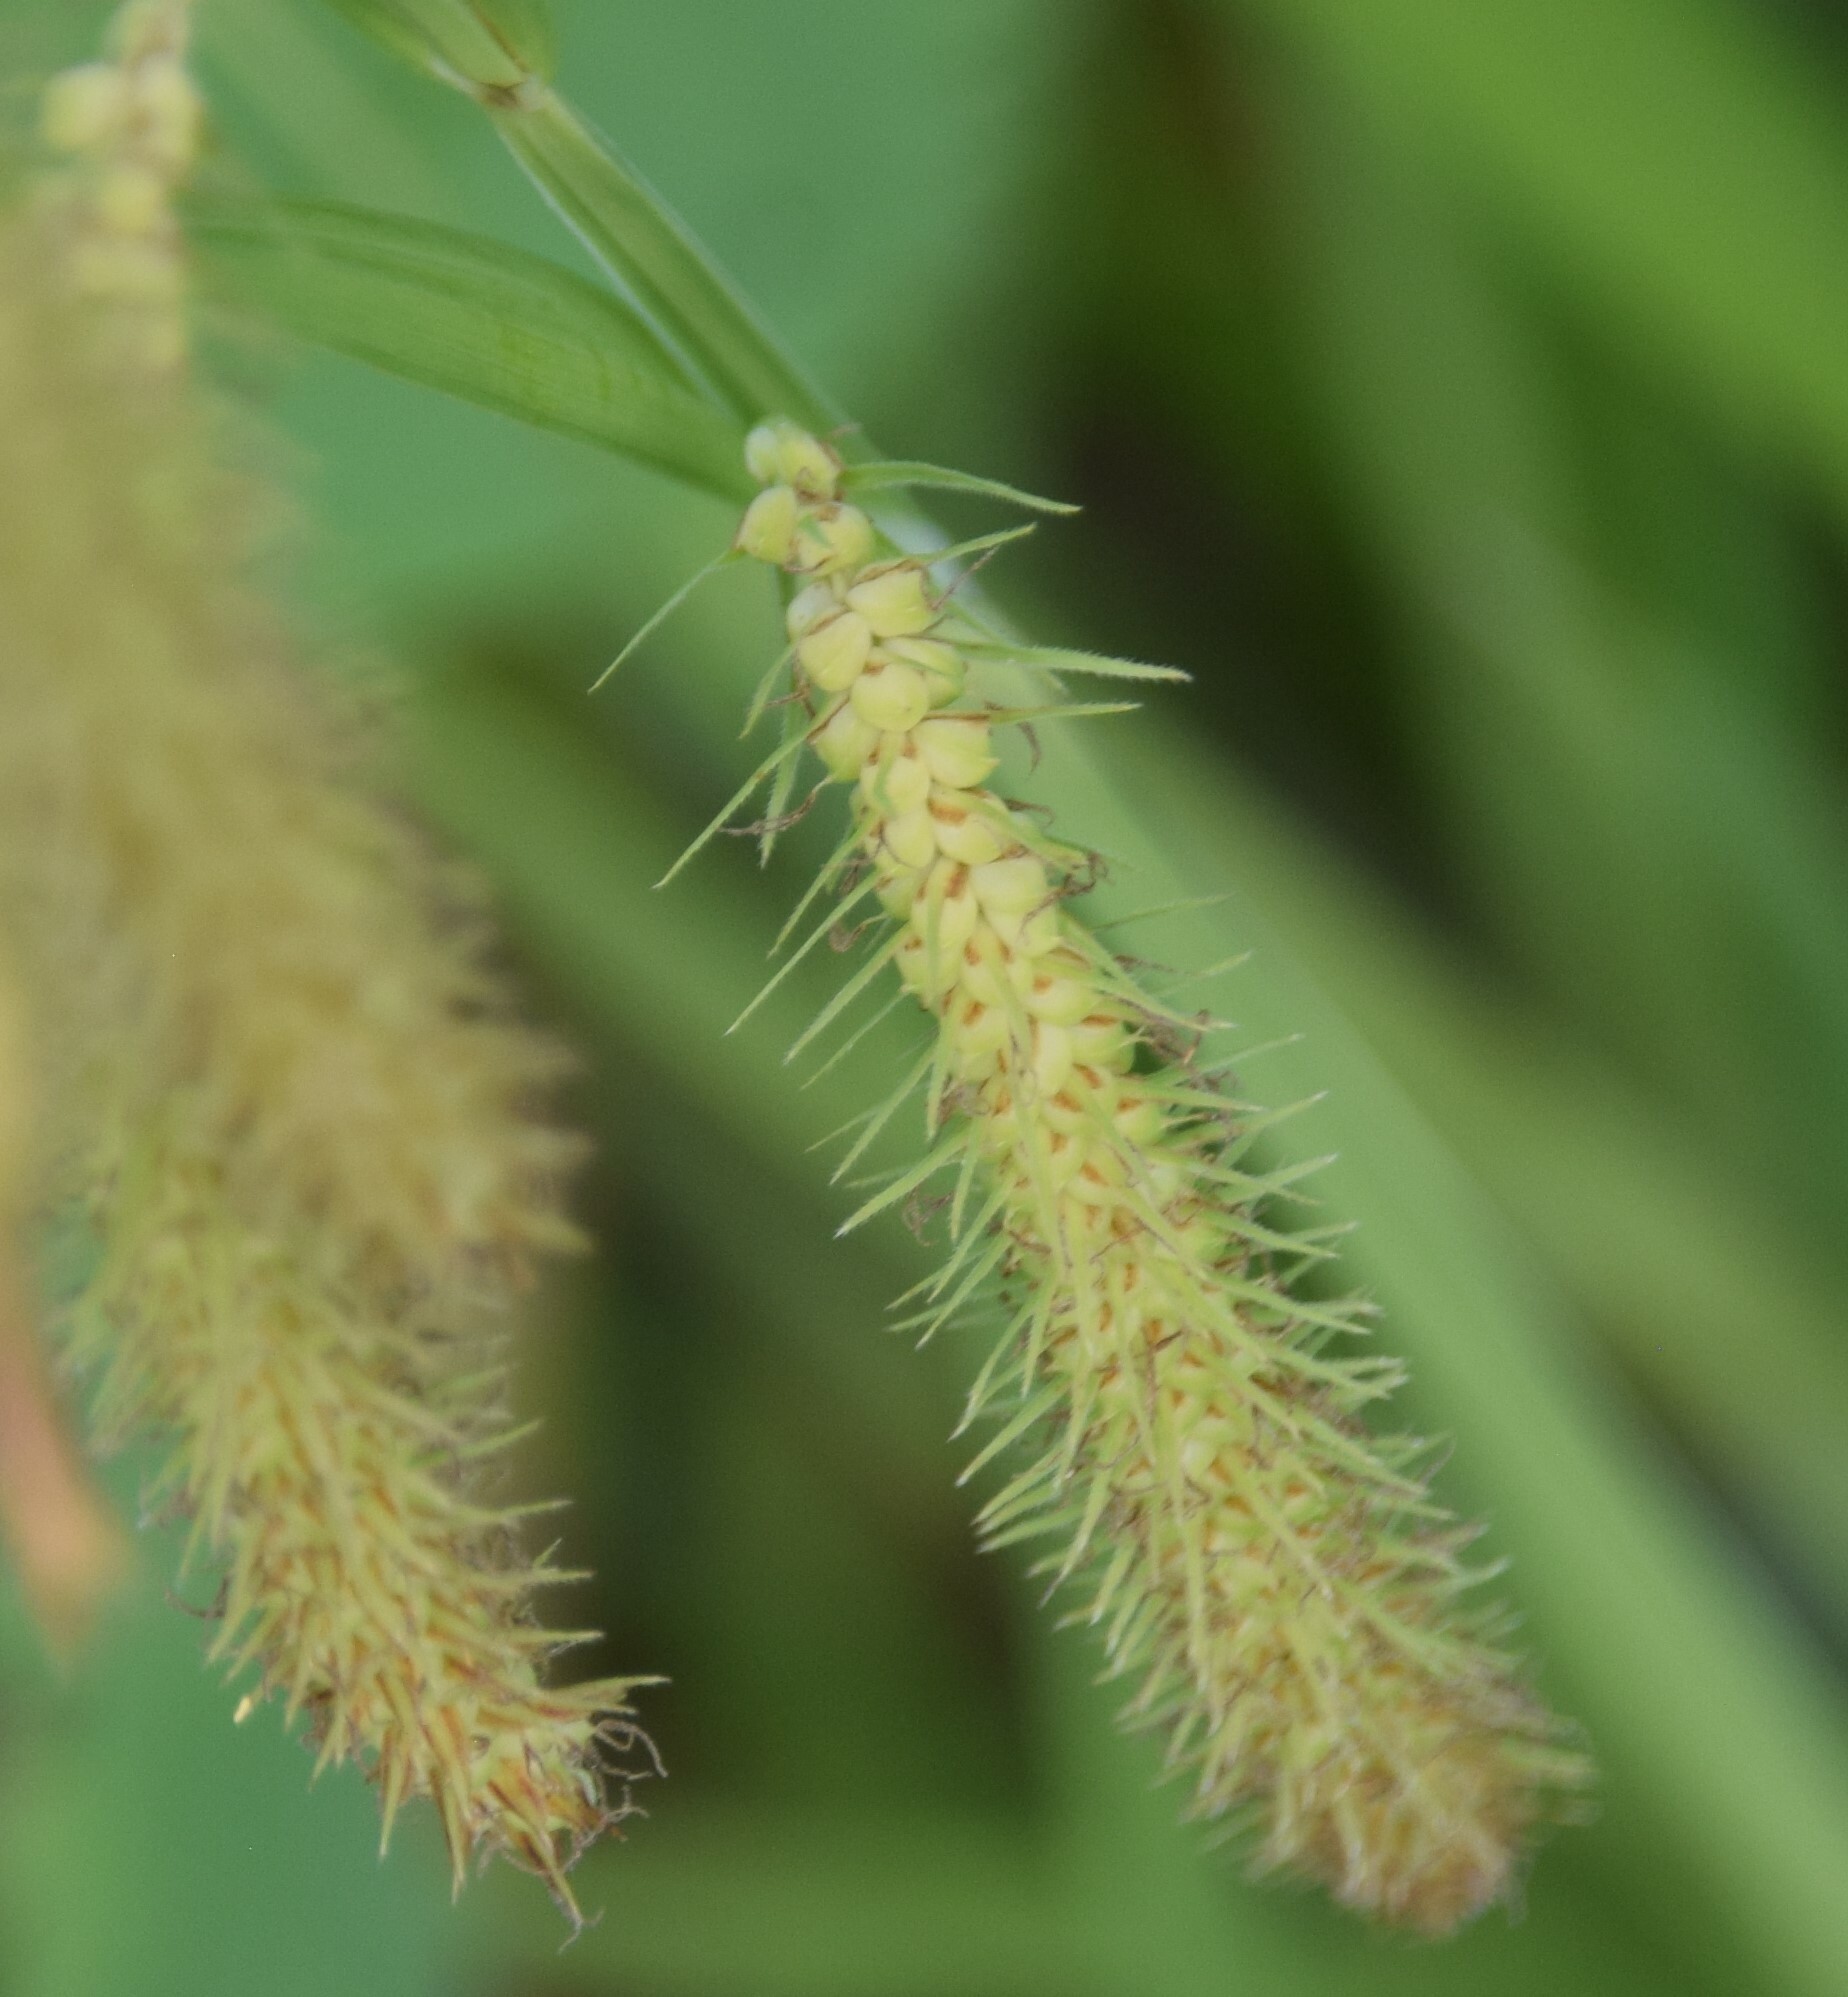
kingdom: Plantae
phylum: Tracheophyta
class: Liliopsida
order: Poales
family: Cyperaceae
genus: Carex
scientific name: Carex crinita
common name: Fringed sedge
